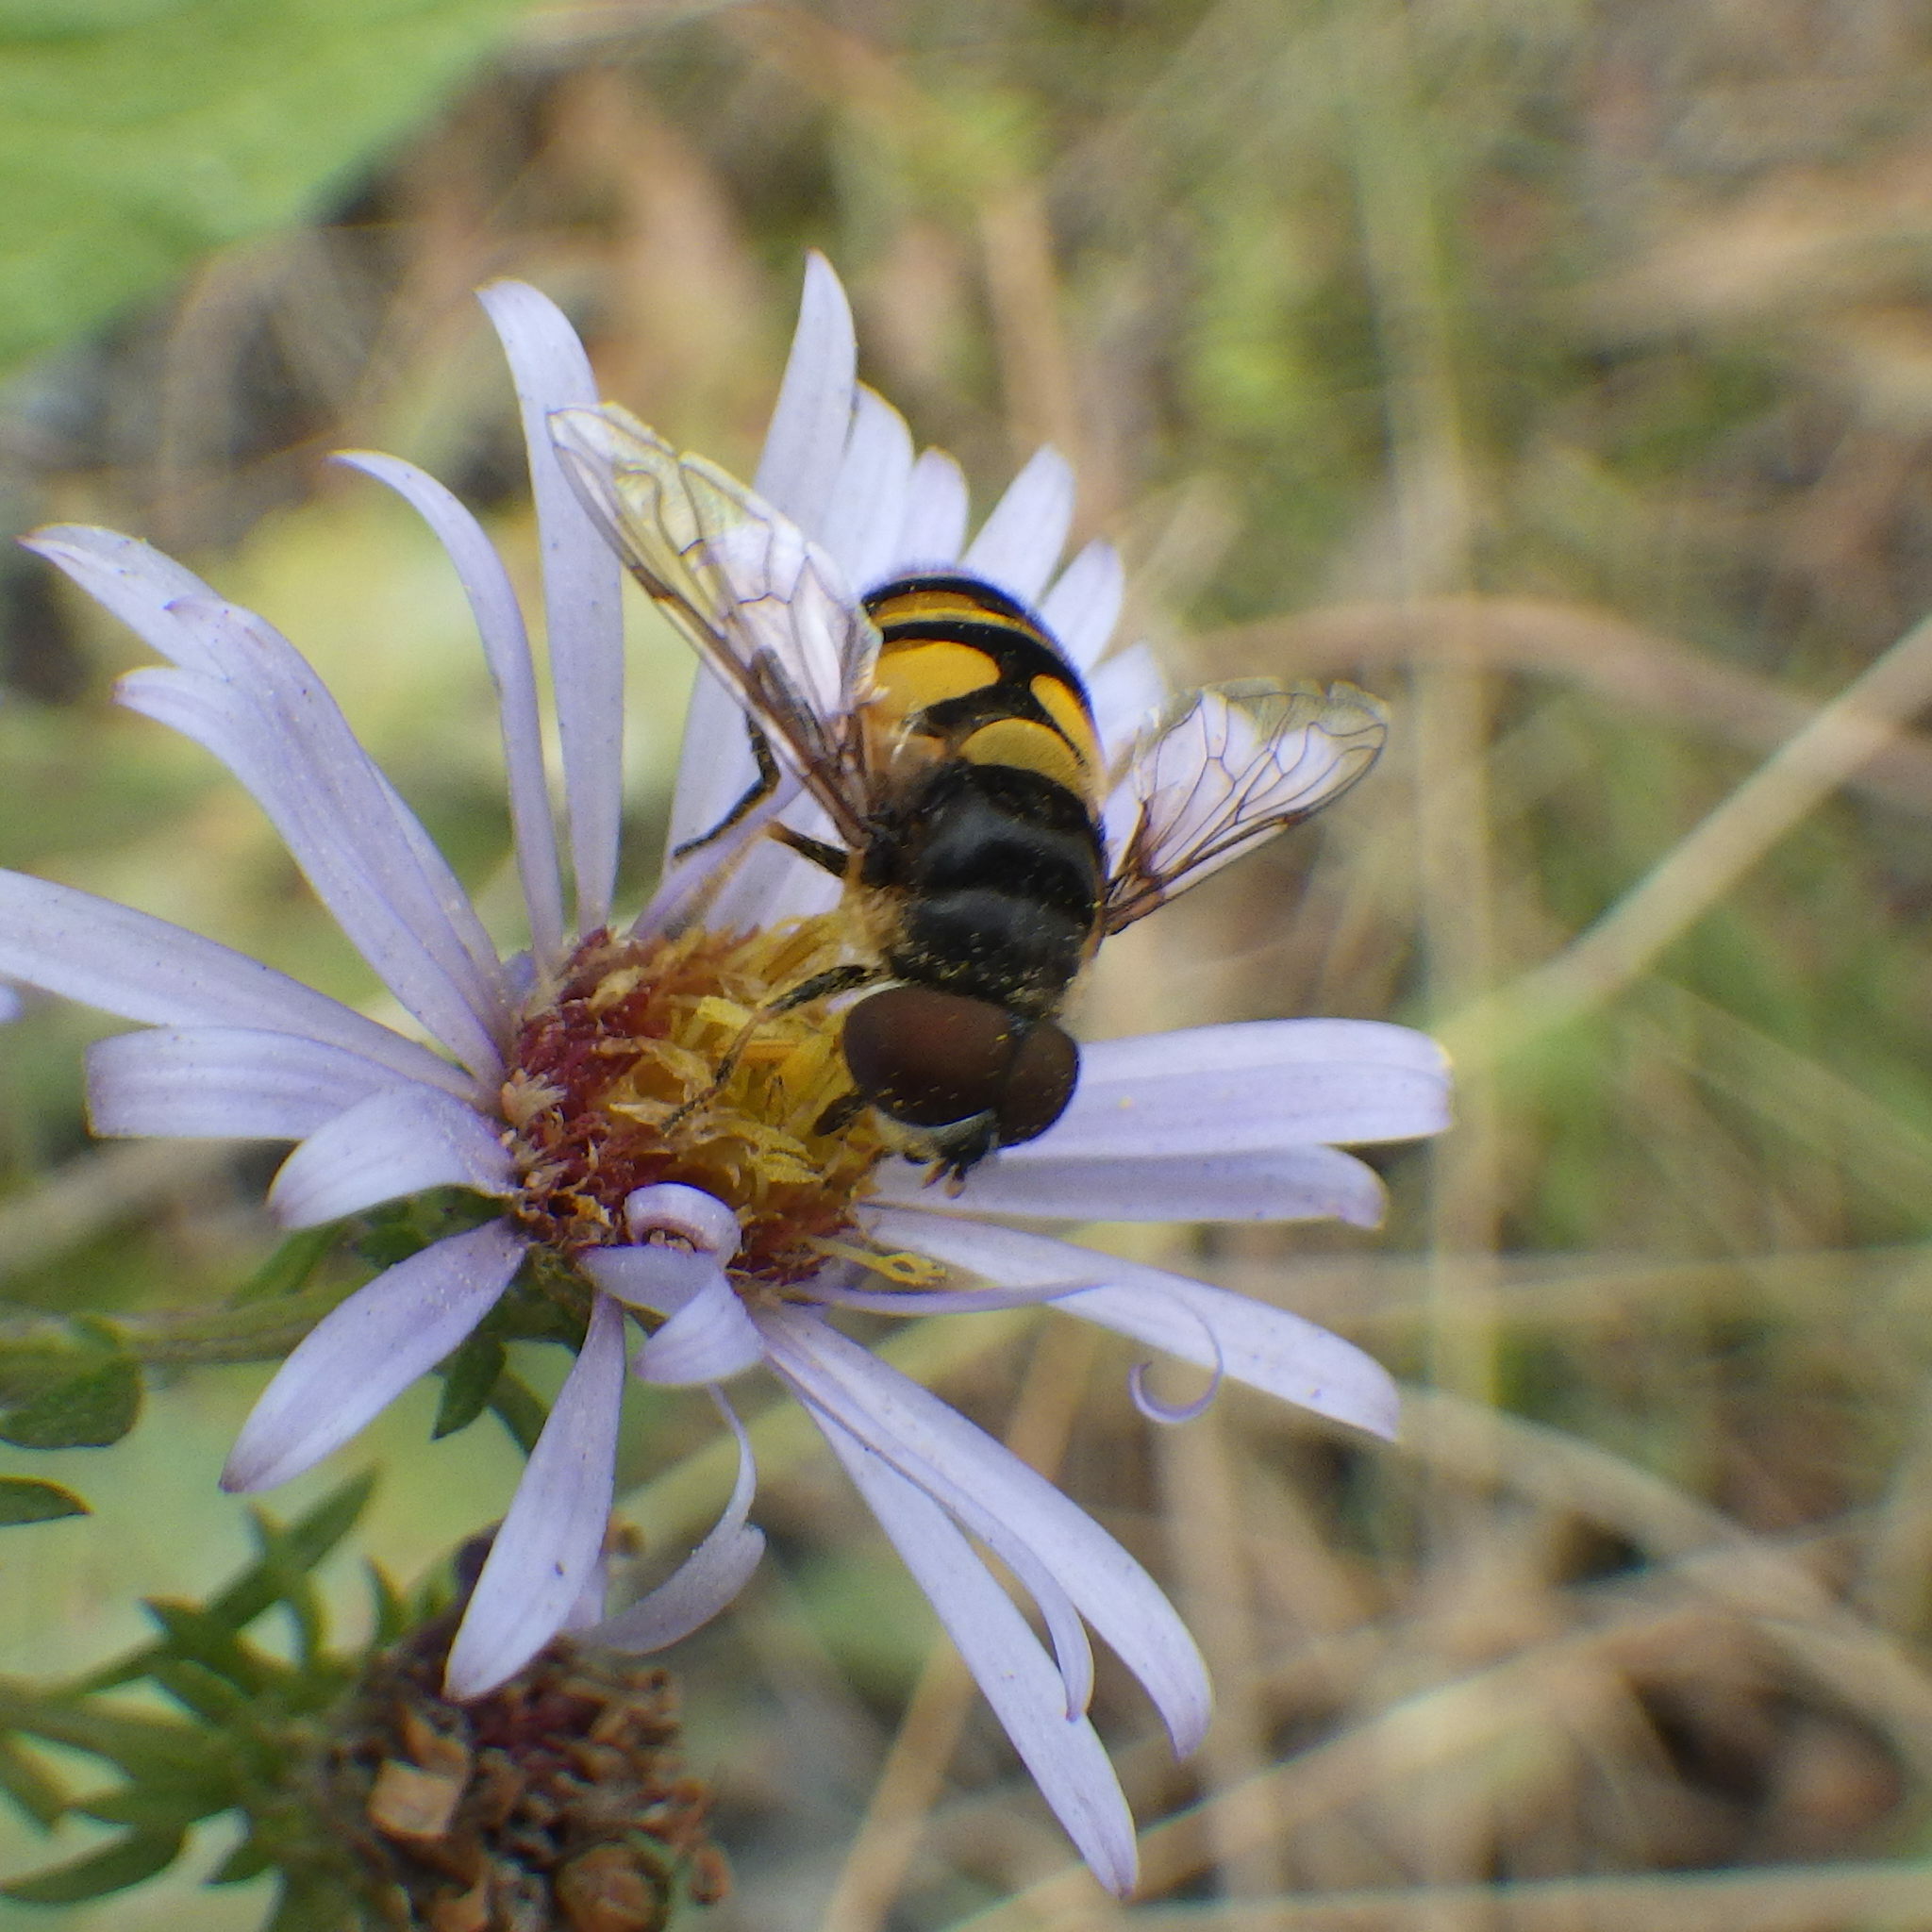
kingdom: Animalia
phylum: Arthropoda
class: Insecta
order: Diptera
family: Syrphidae
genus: Eristalis
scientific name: Eristalis transversa
